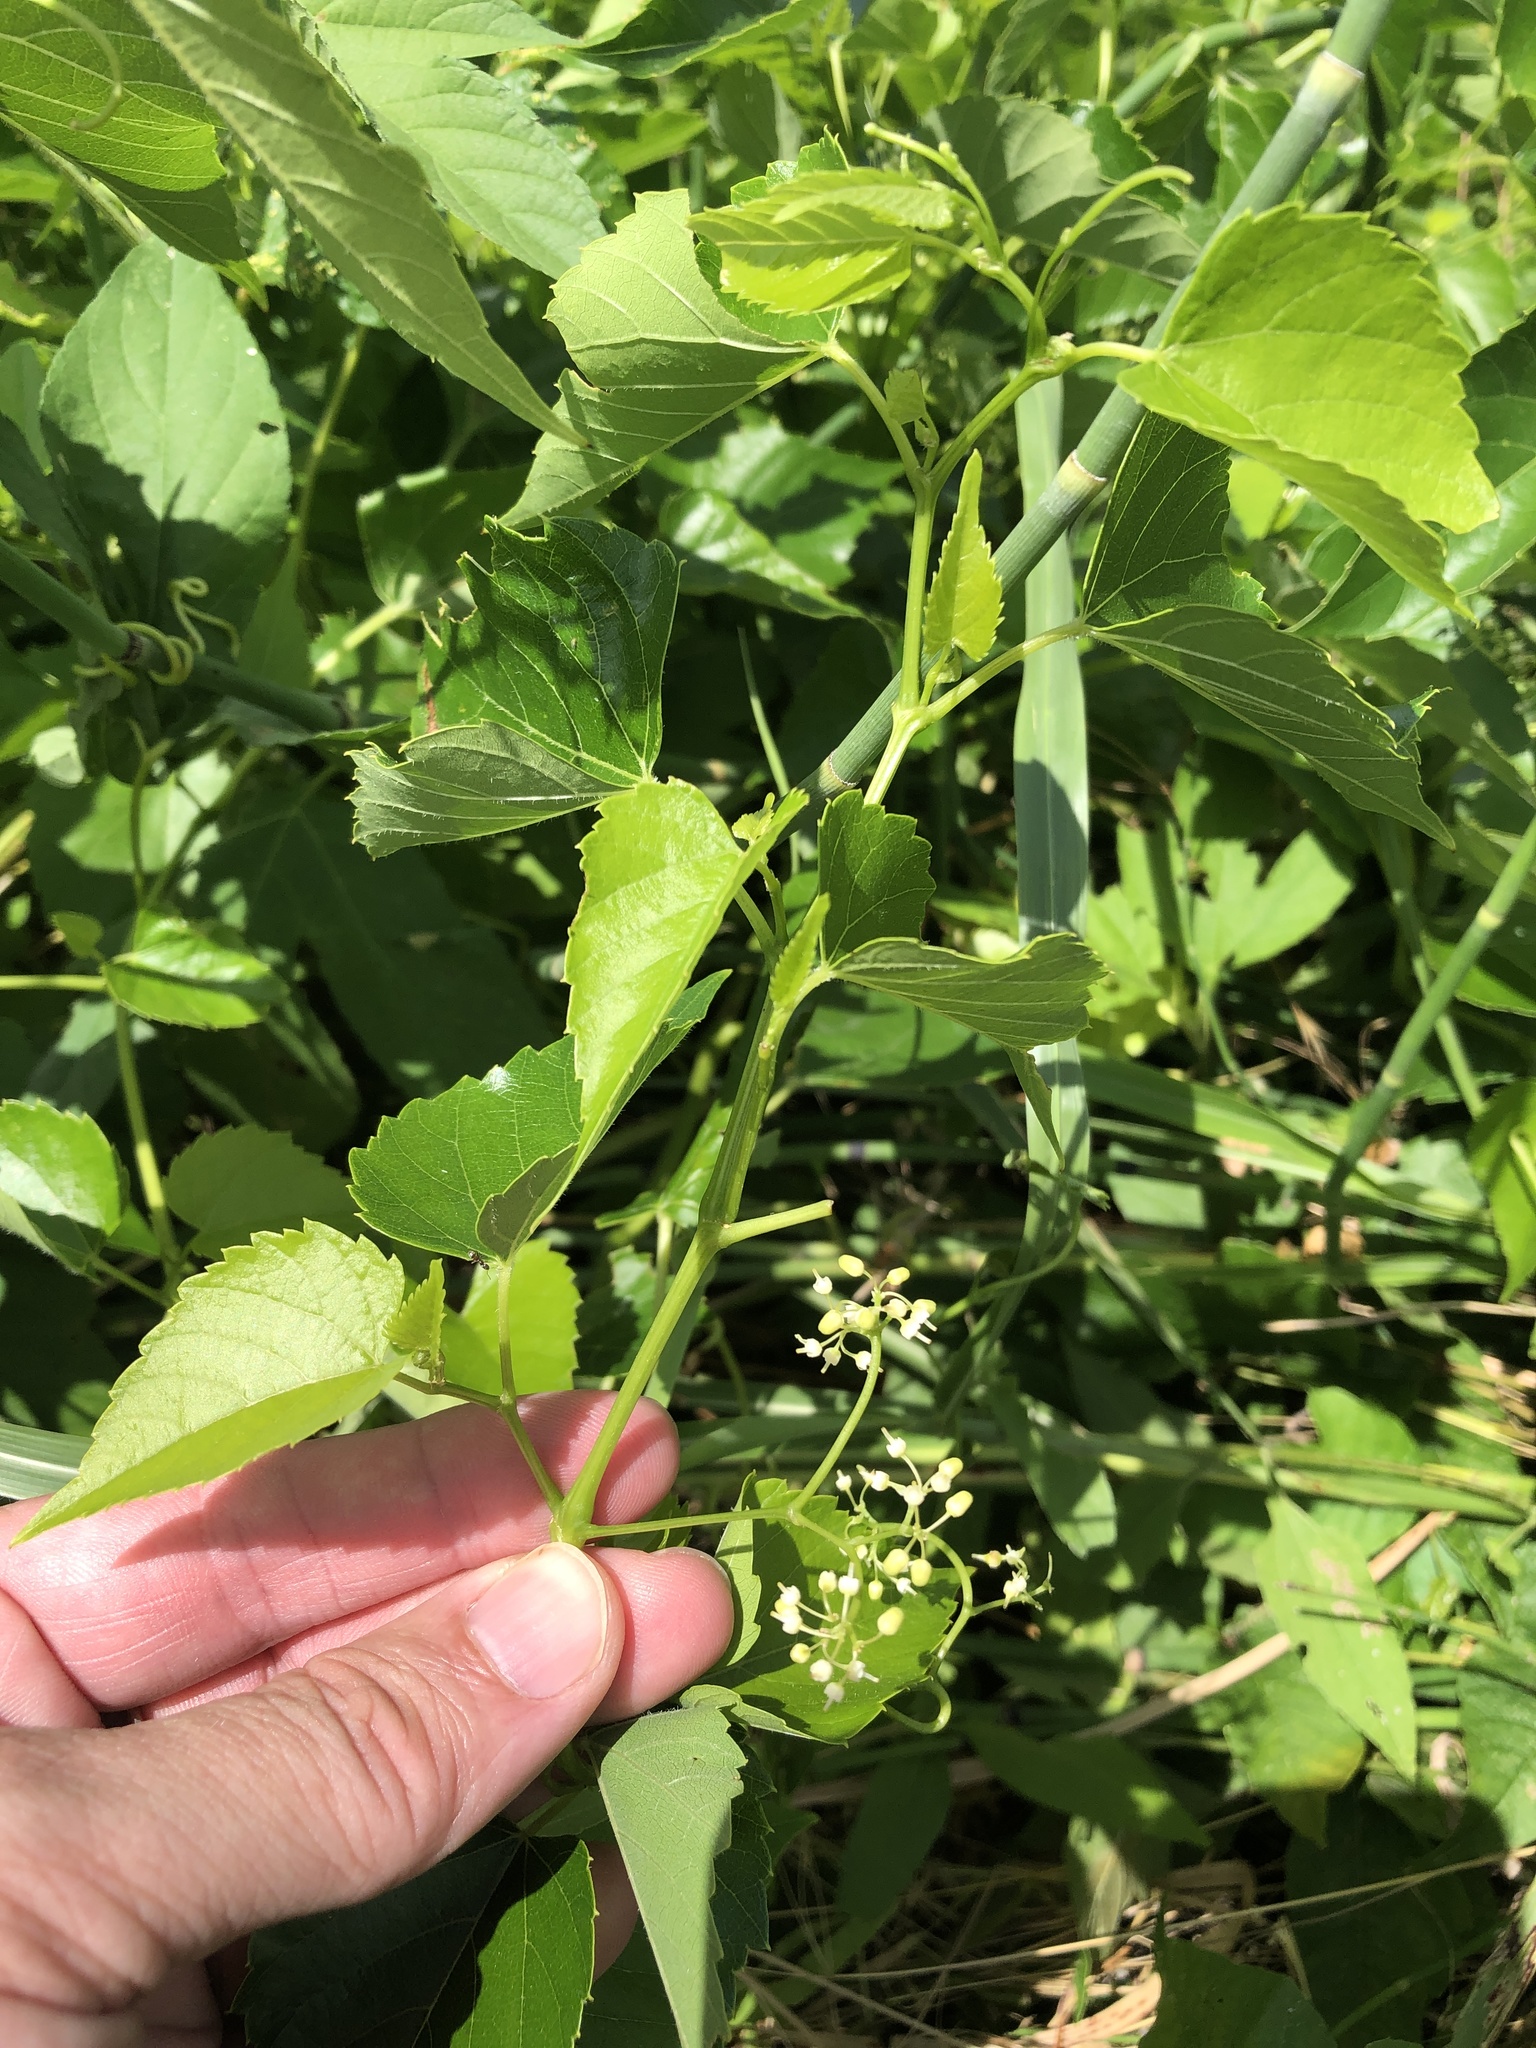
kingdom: Plantae
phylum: Tracheophyta
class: Magnoliopsida
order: Vitales
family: Vitaceae
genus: Ampelopsis
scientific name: Ampelopsis cordata
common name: Heart-leaf ampelopsis
